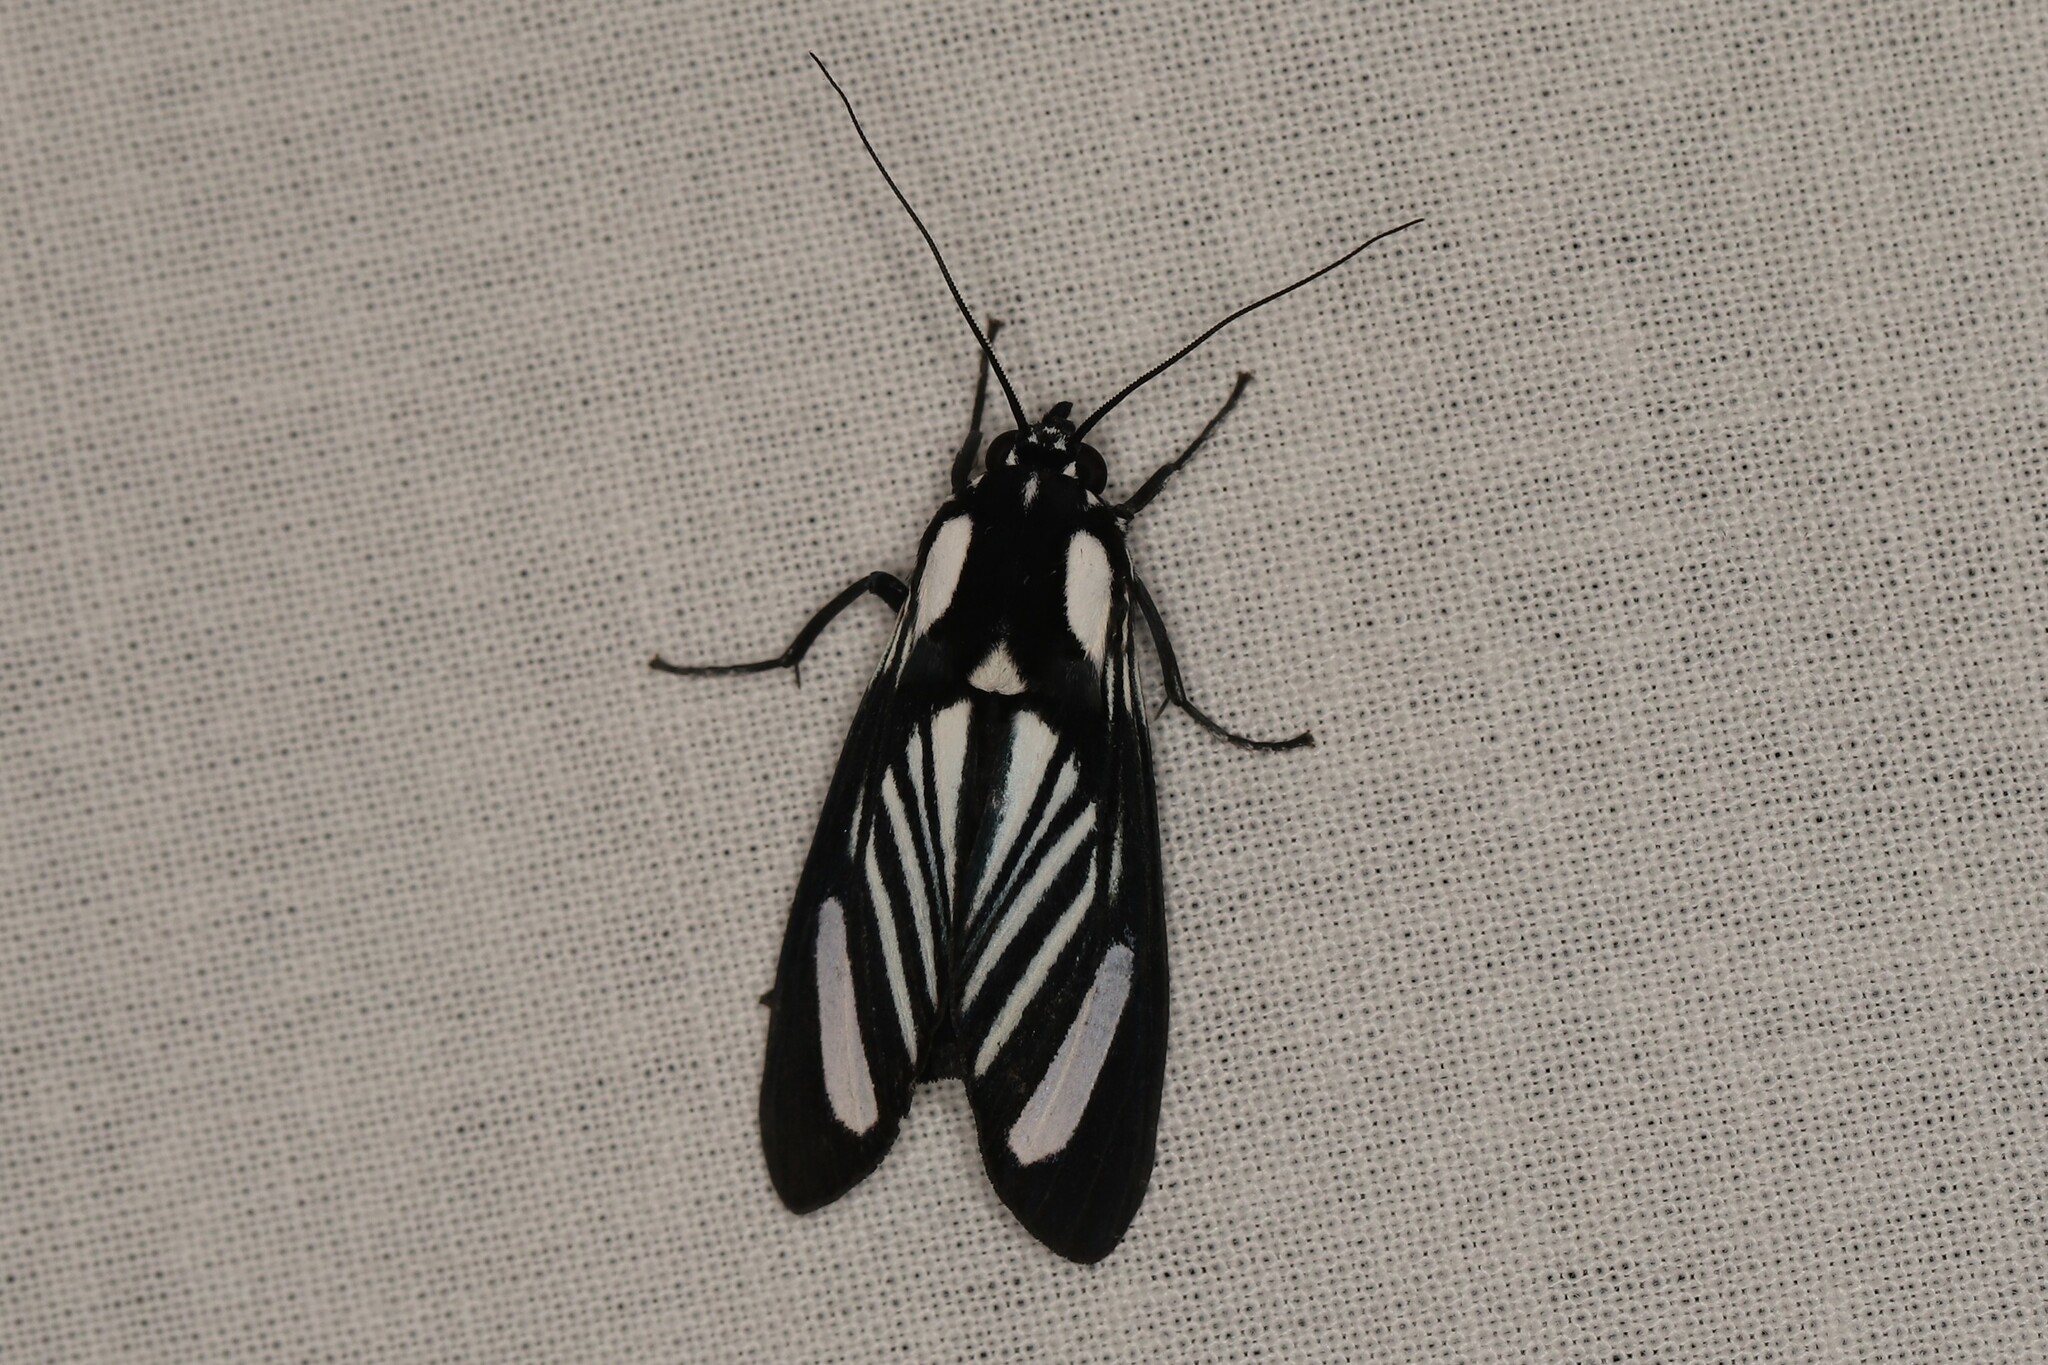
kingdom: Animalia
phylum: Arthropoda
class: Insecta
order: Lepidoptera
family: Erebidae
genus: Rhipha
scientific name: Rhipha strigosa
